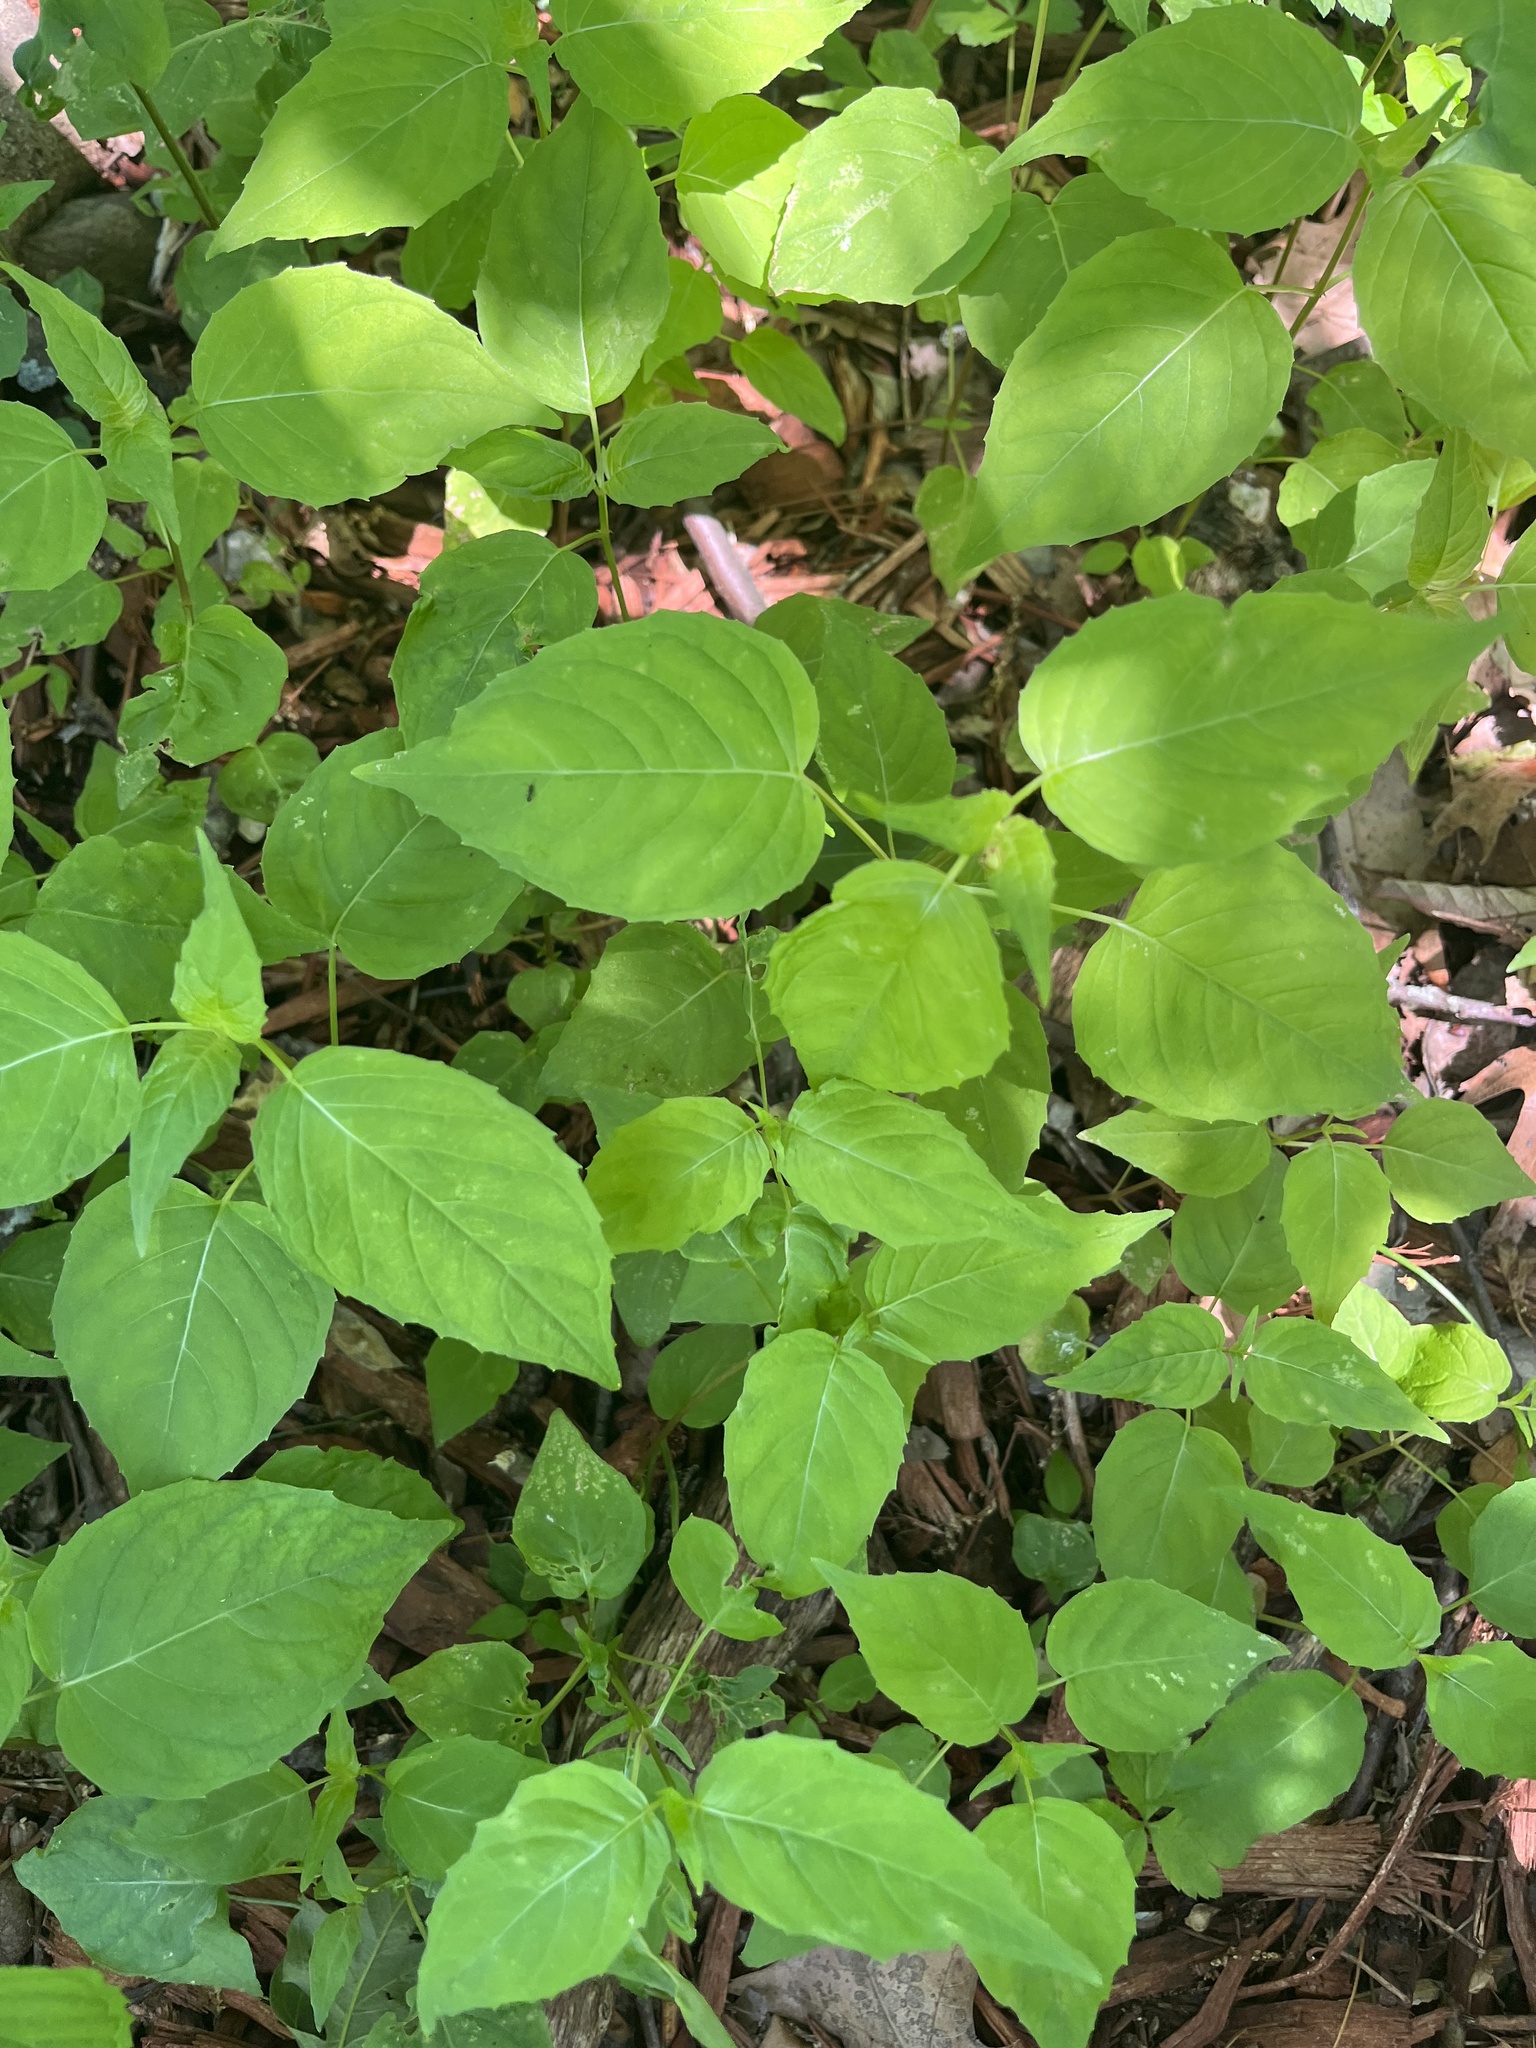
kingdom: Plantae
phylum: Tracheophyta
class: Magnoliopsida
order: Myrtales
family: Onagraceae
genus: Circaea
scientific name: Circaea canadensis
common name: Broad-leaved enchanter's nightshade
